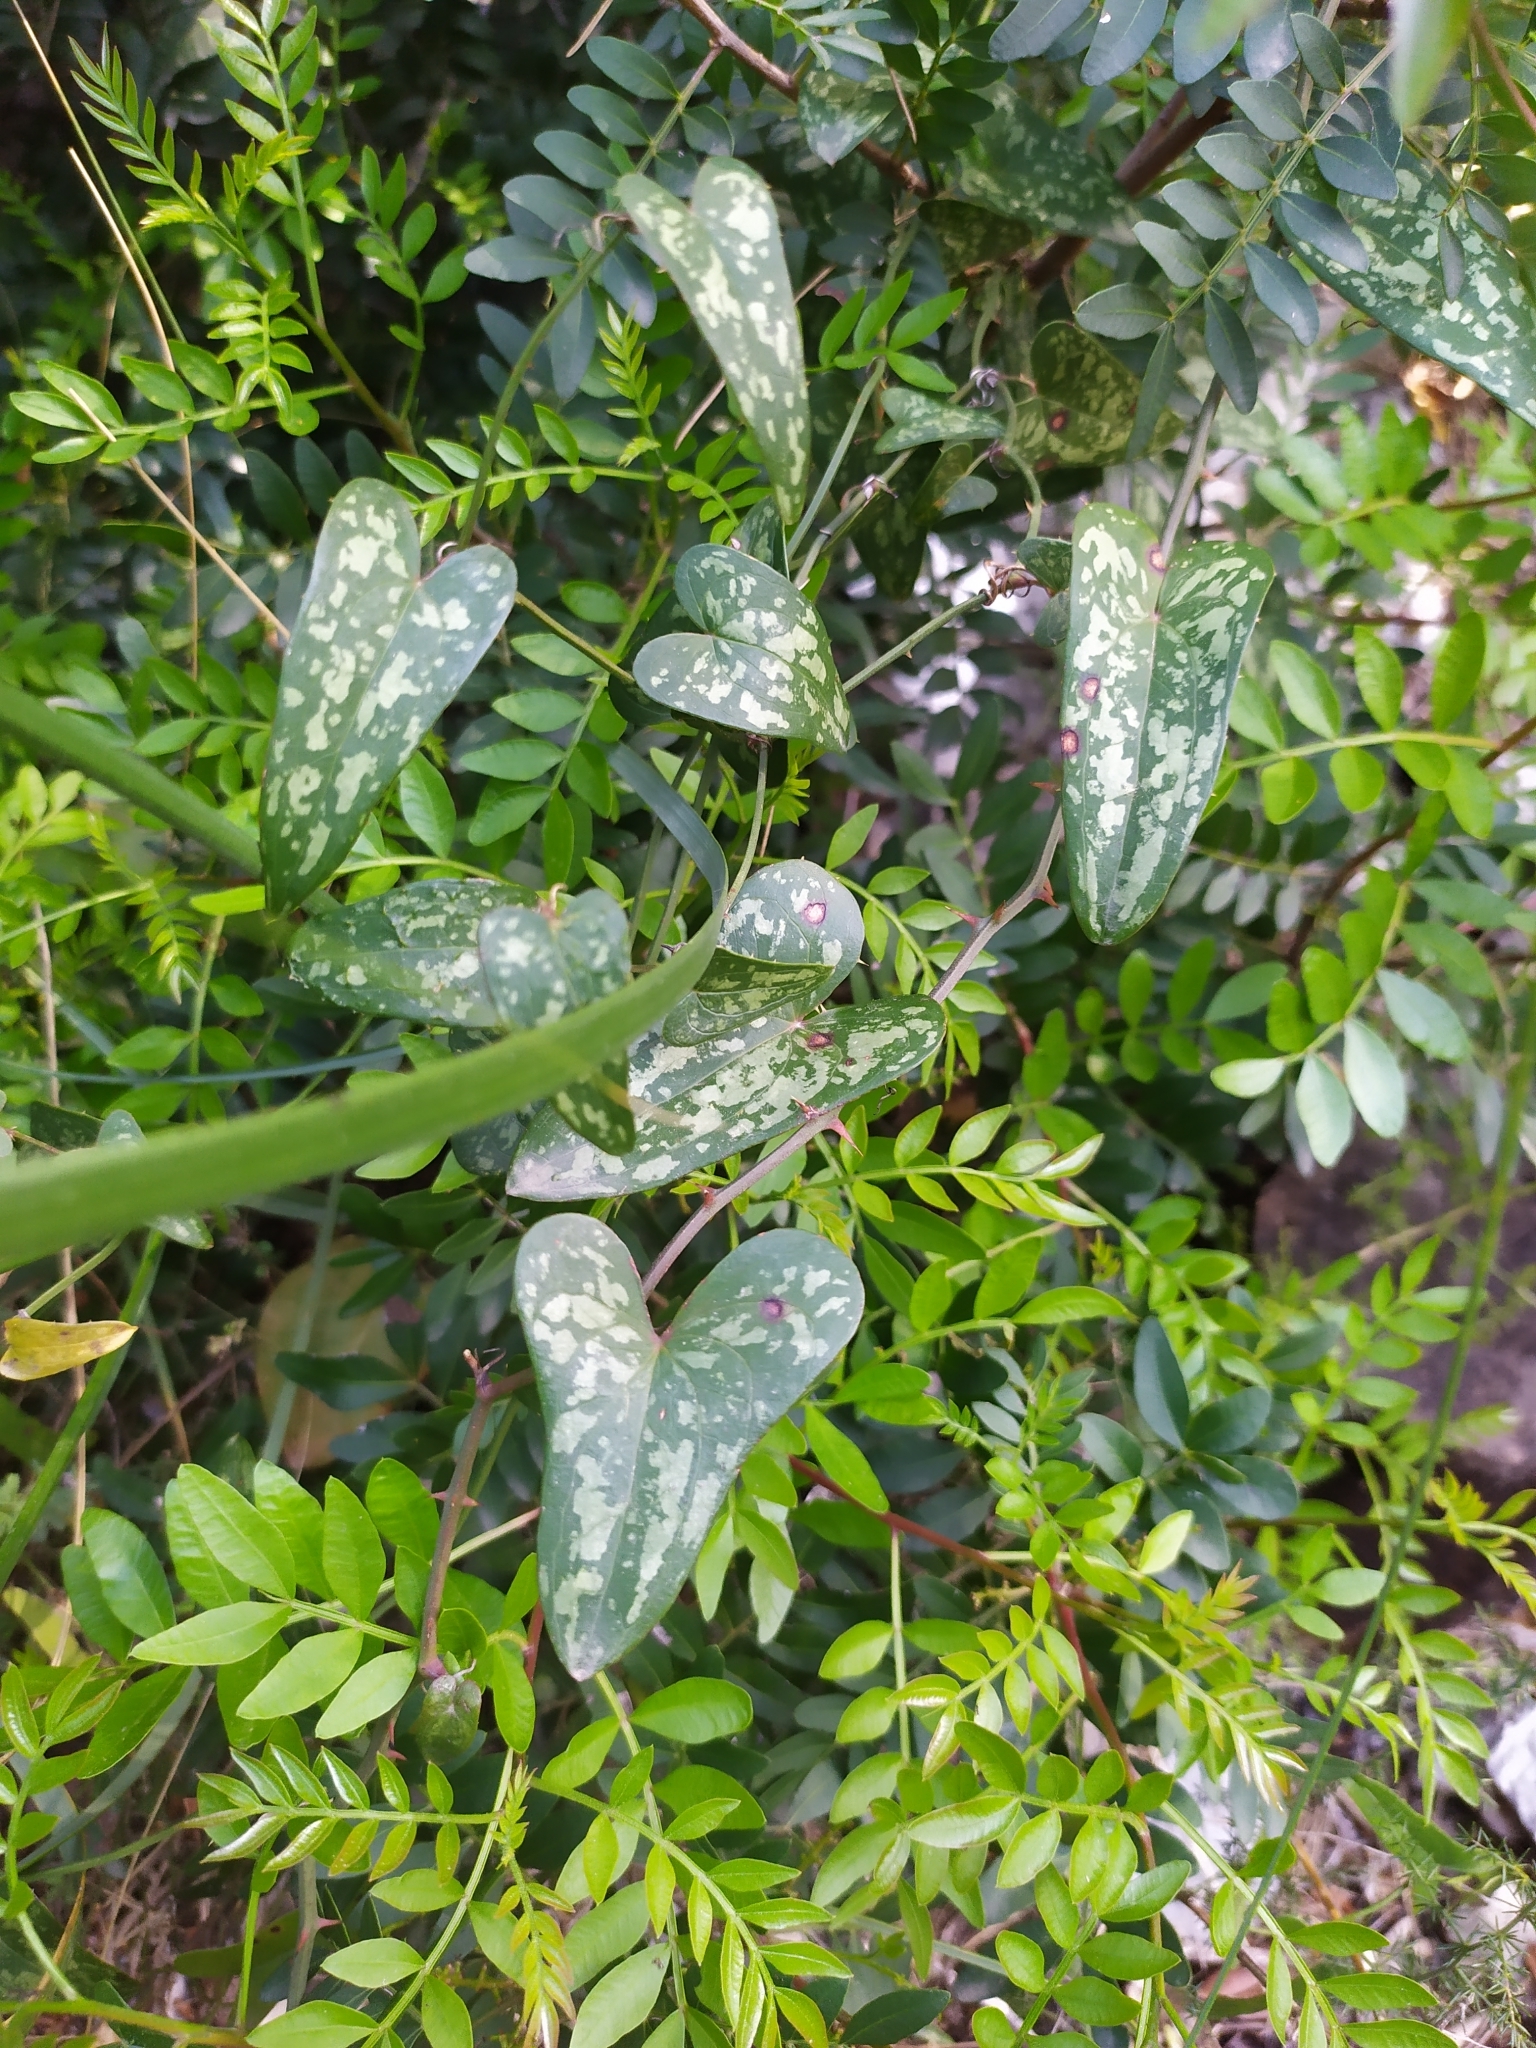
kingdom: Plantae
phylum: Tracheophyta
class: Liliopsida
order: Liliales
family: Smilacaceae
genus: Smilax
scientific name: Smilax aspera
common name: Common smilax
